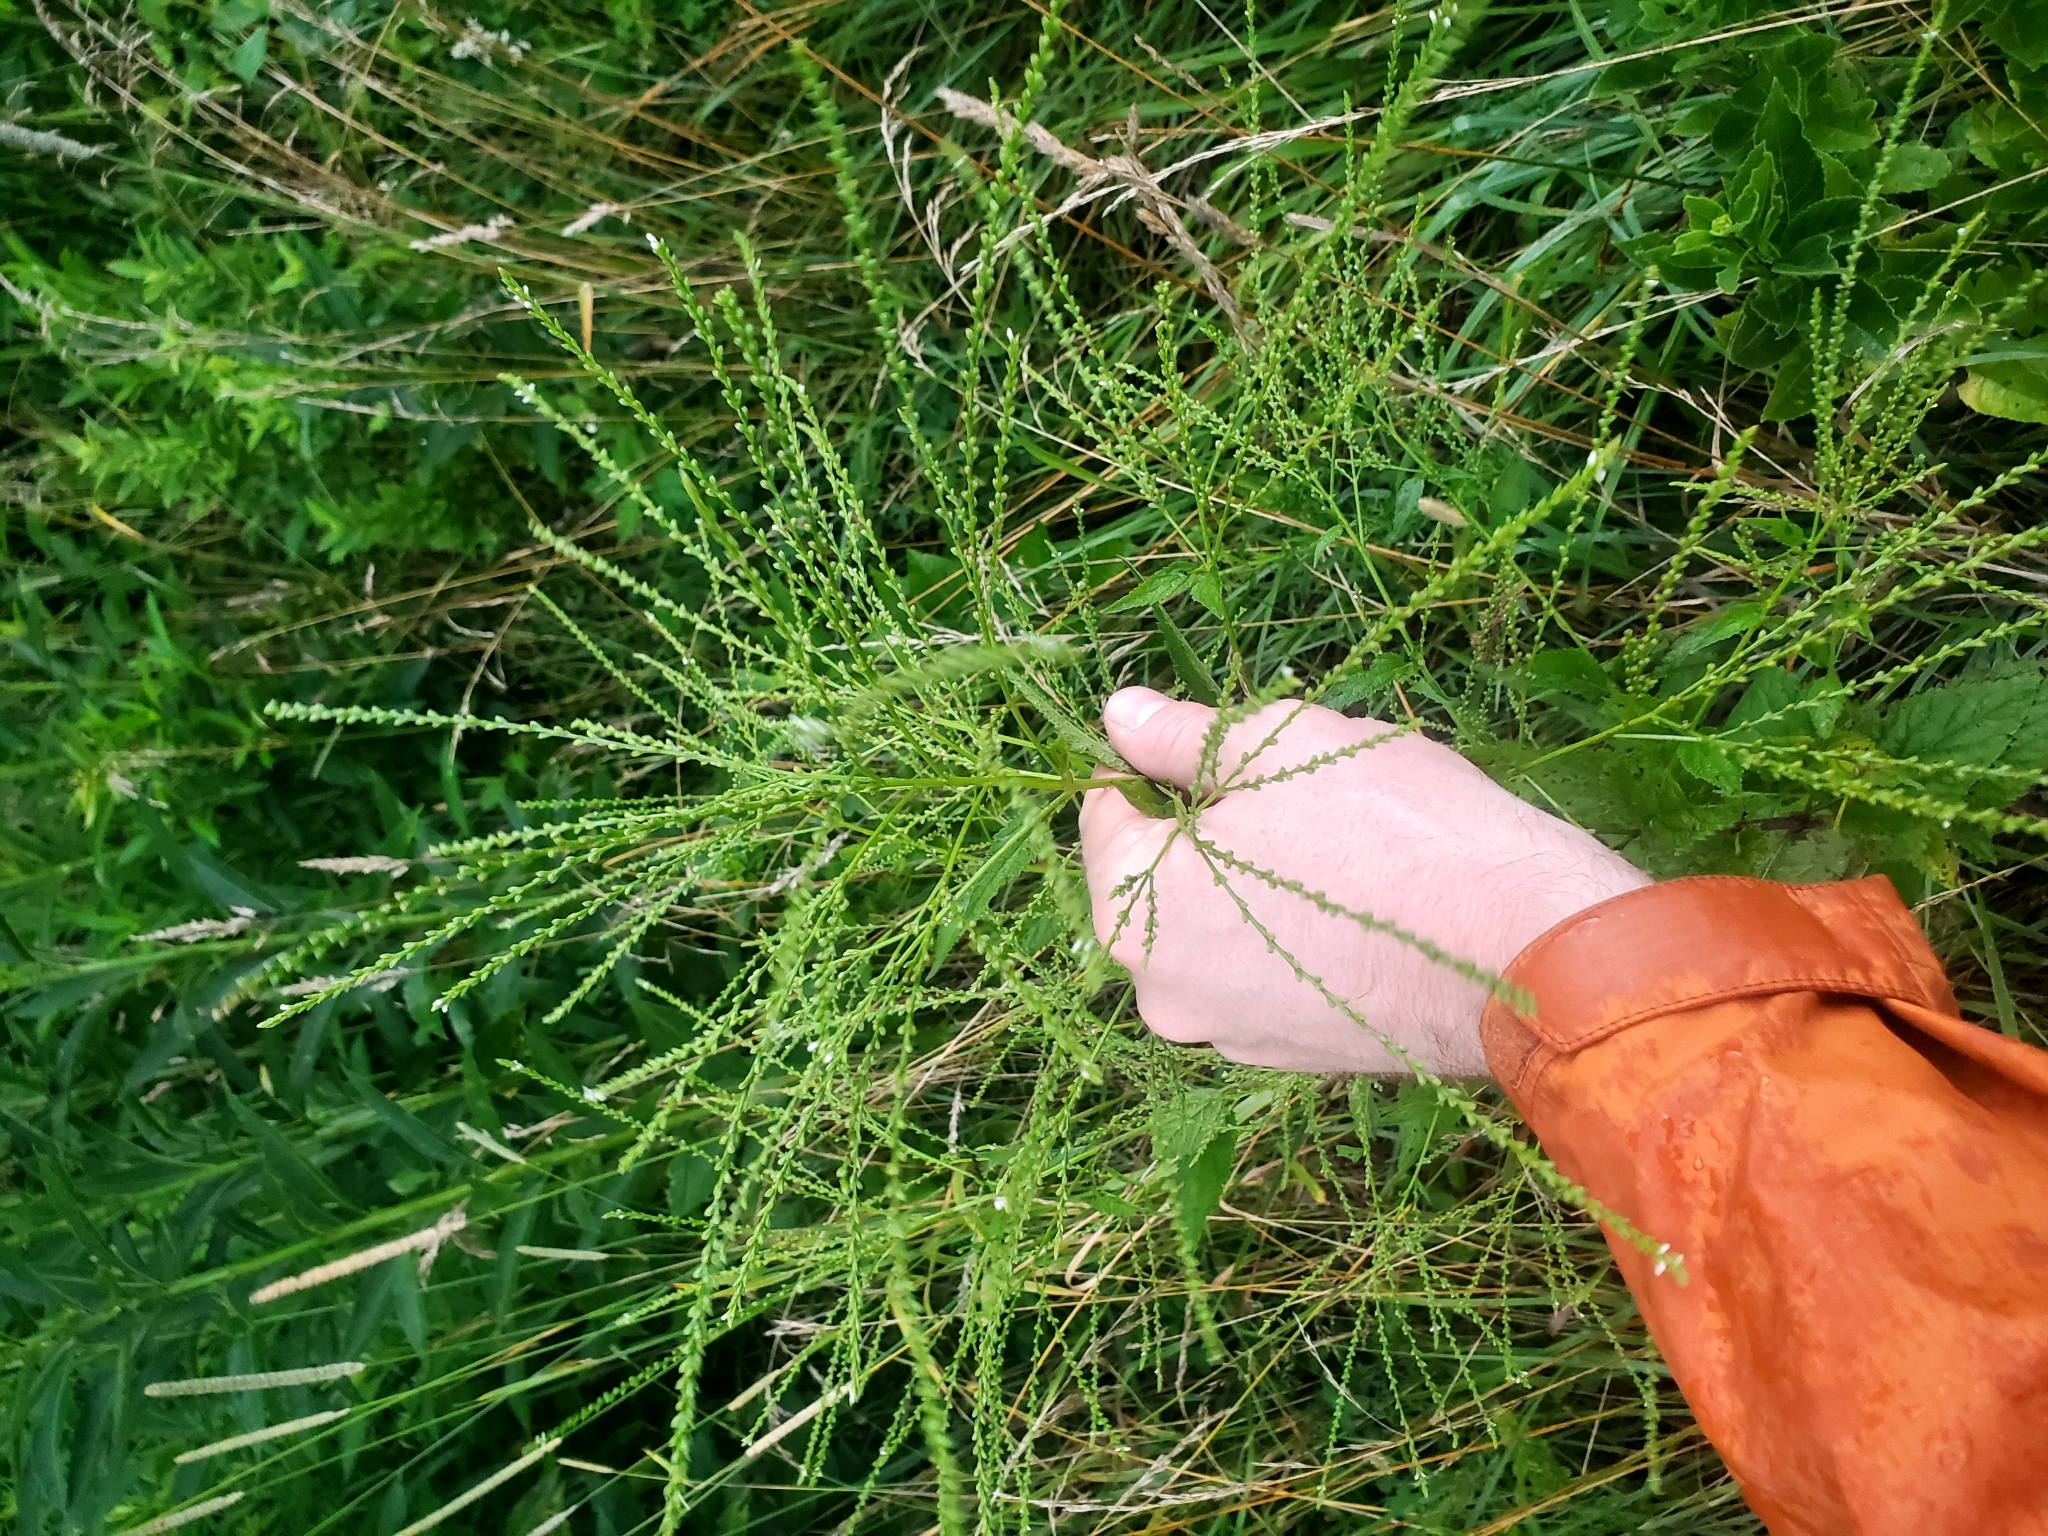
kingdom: Plantae
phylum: Tracheophyta
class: Magnoliopsida
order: Lamiales
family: Verbenaceae
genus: Verbena
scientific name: Verbena urticifolia
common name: Nettle-leaved vervain
